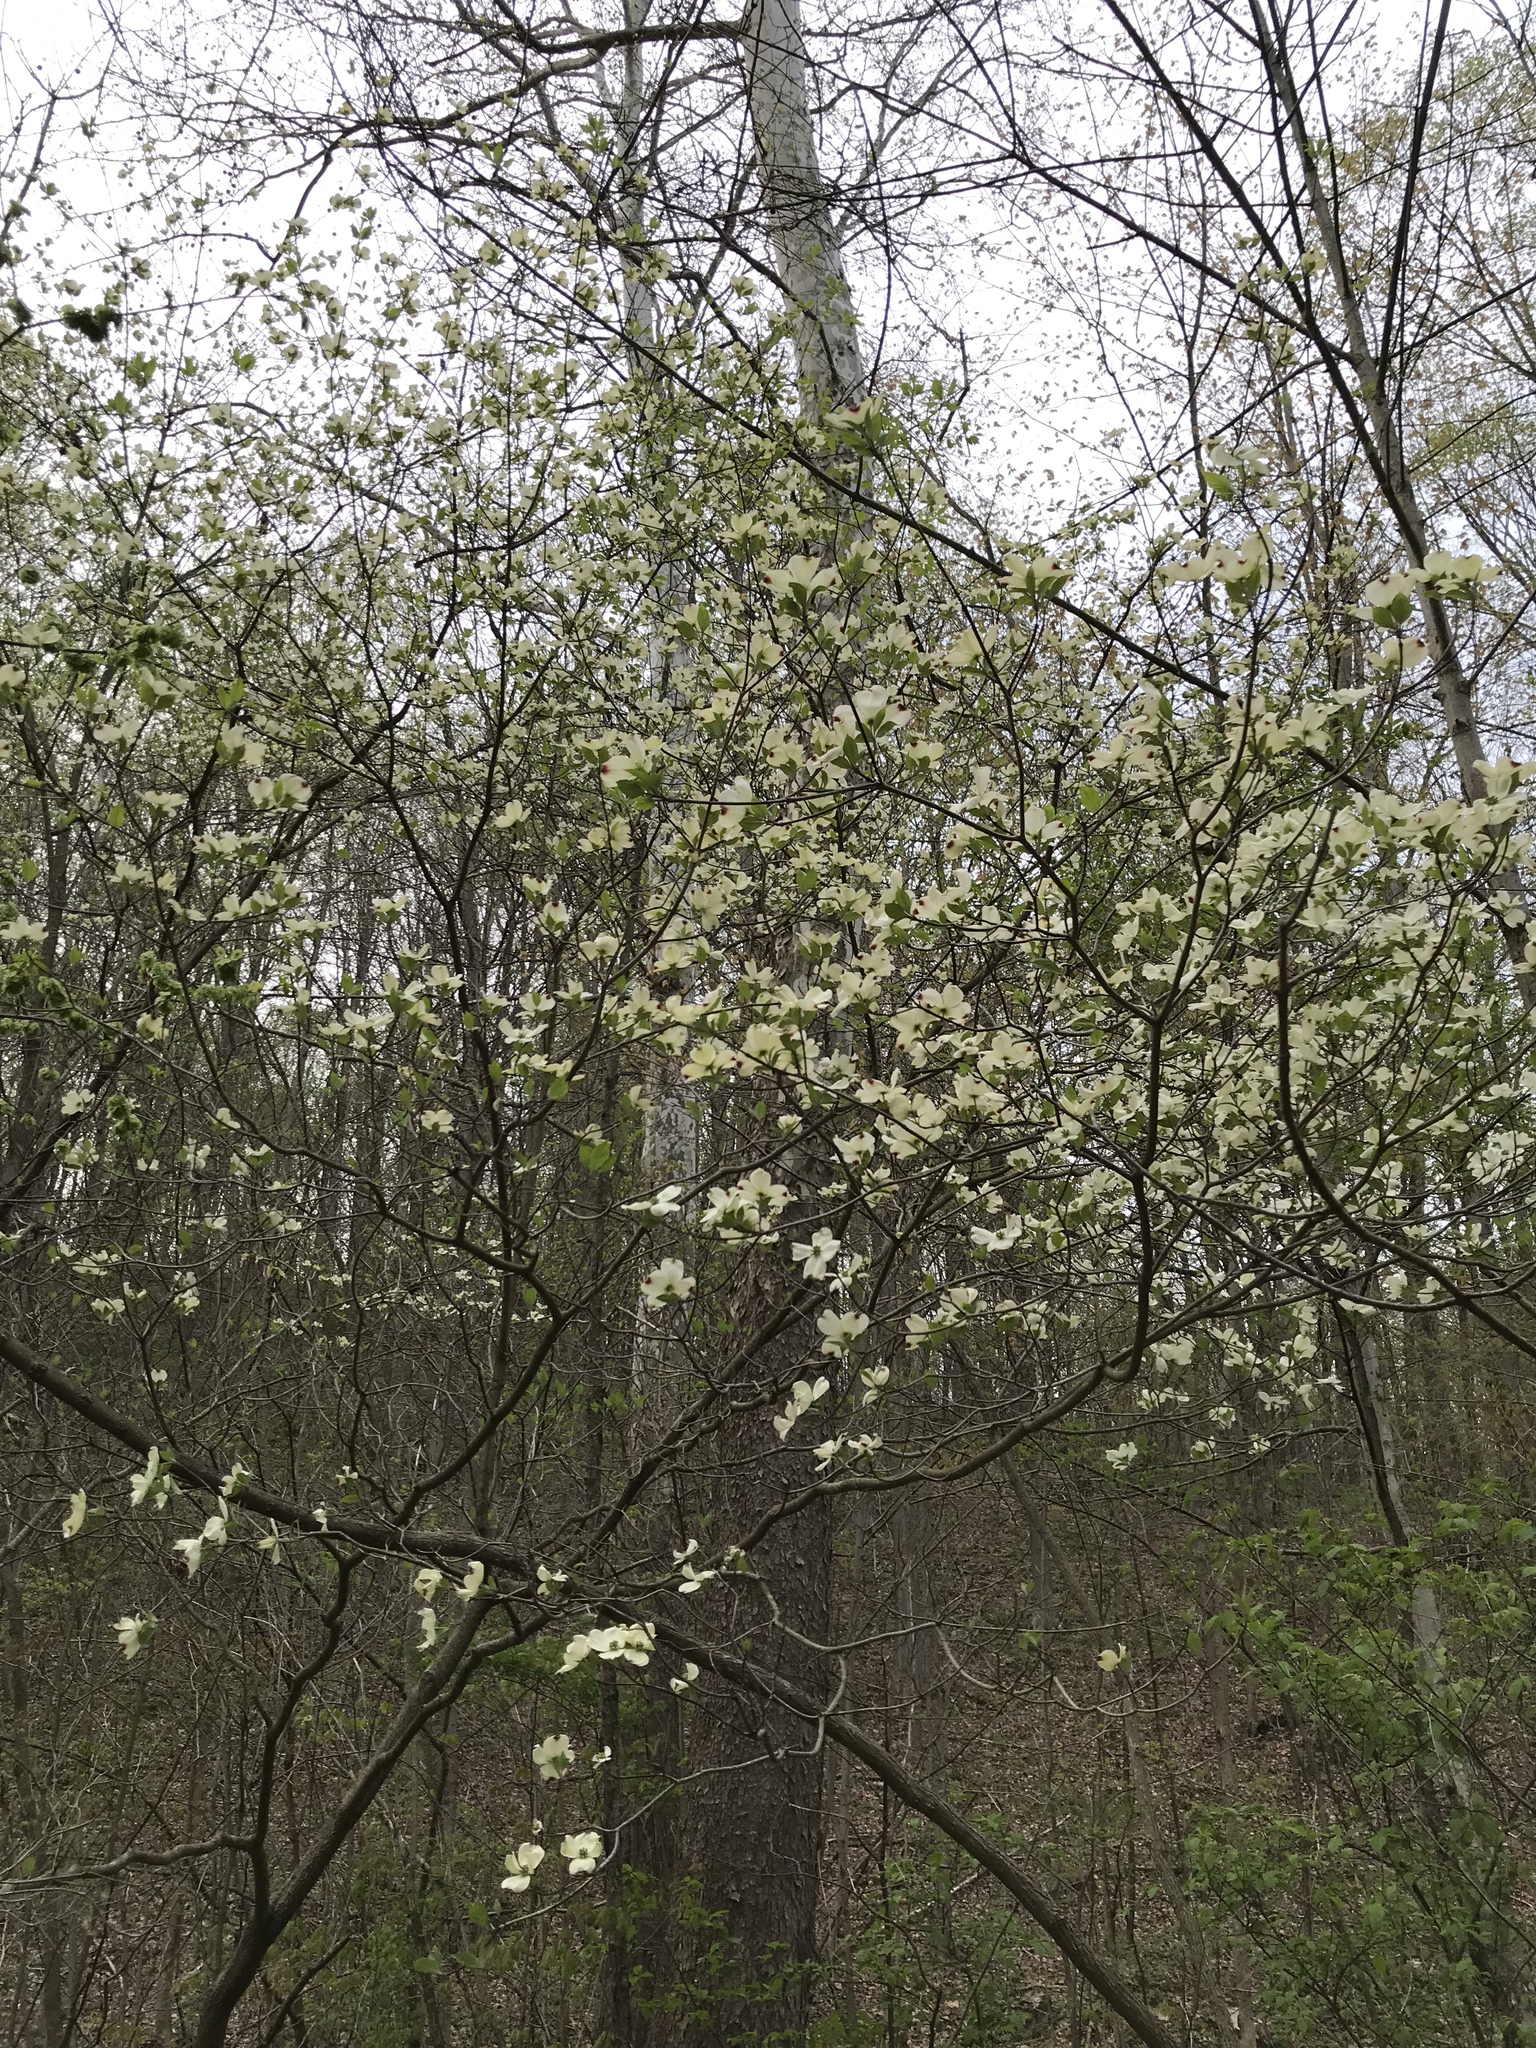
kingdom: Plantae
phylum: Tracheophyta
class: Magnoliopsida
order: Cornales
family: Cornaceae
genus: Cornus
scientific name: Cornus florida
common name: Flowering dogwood
